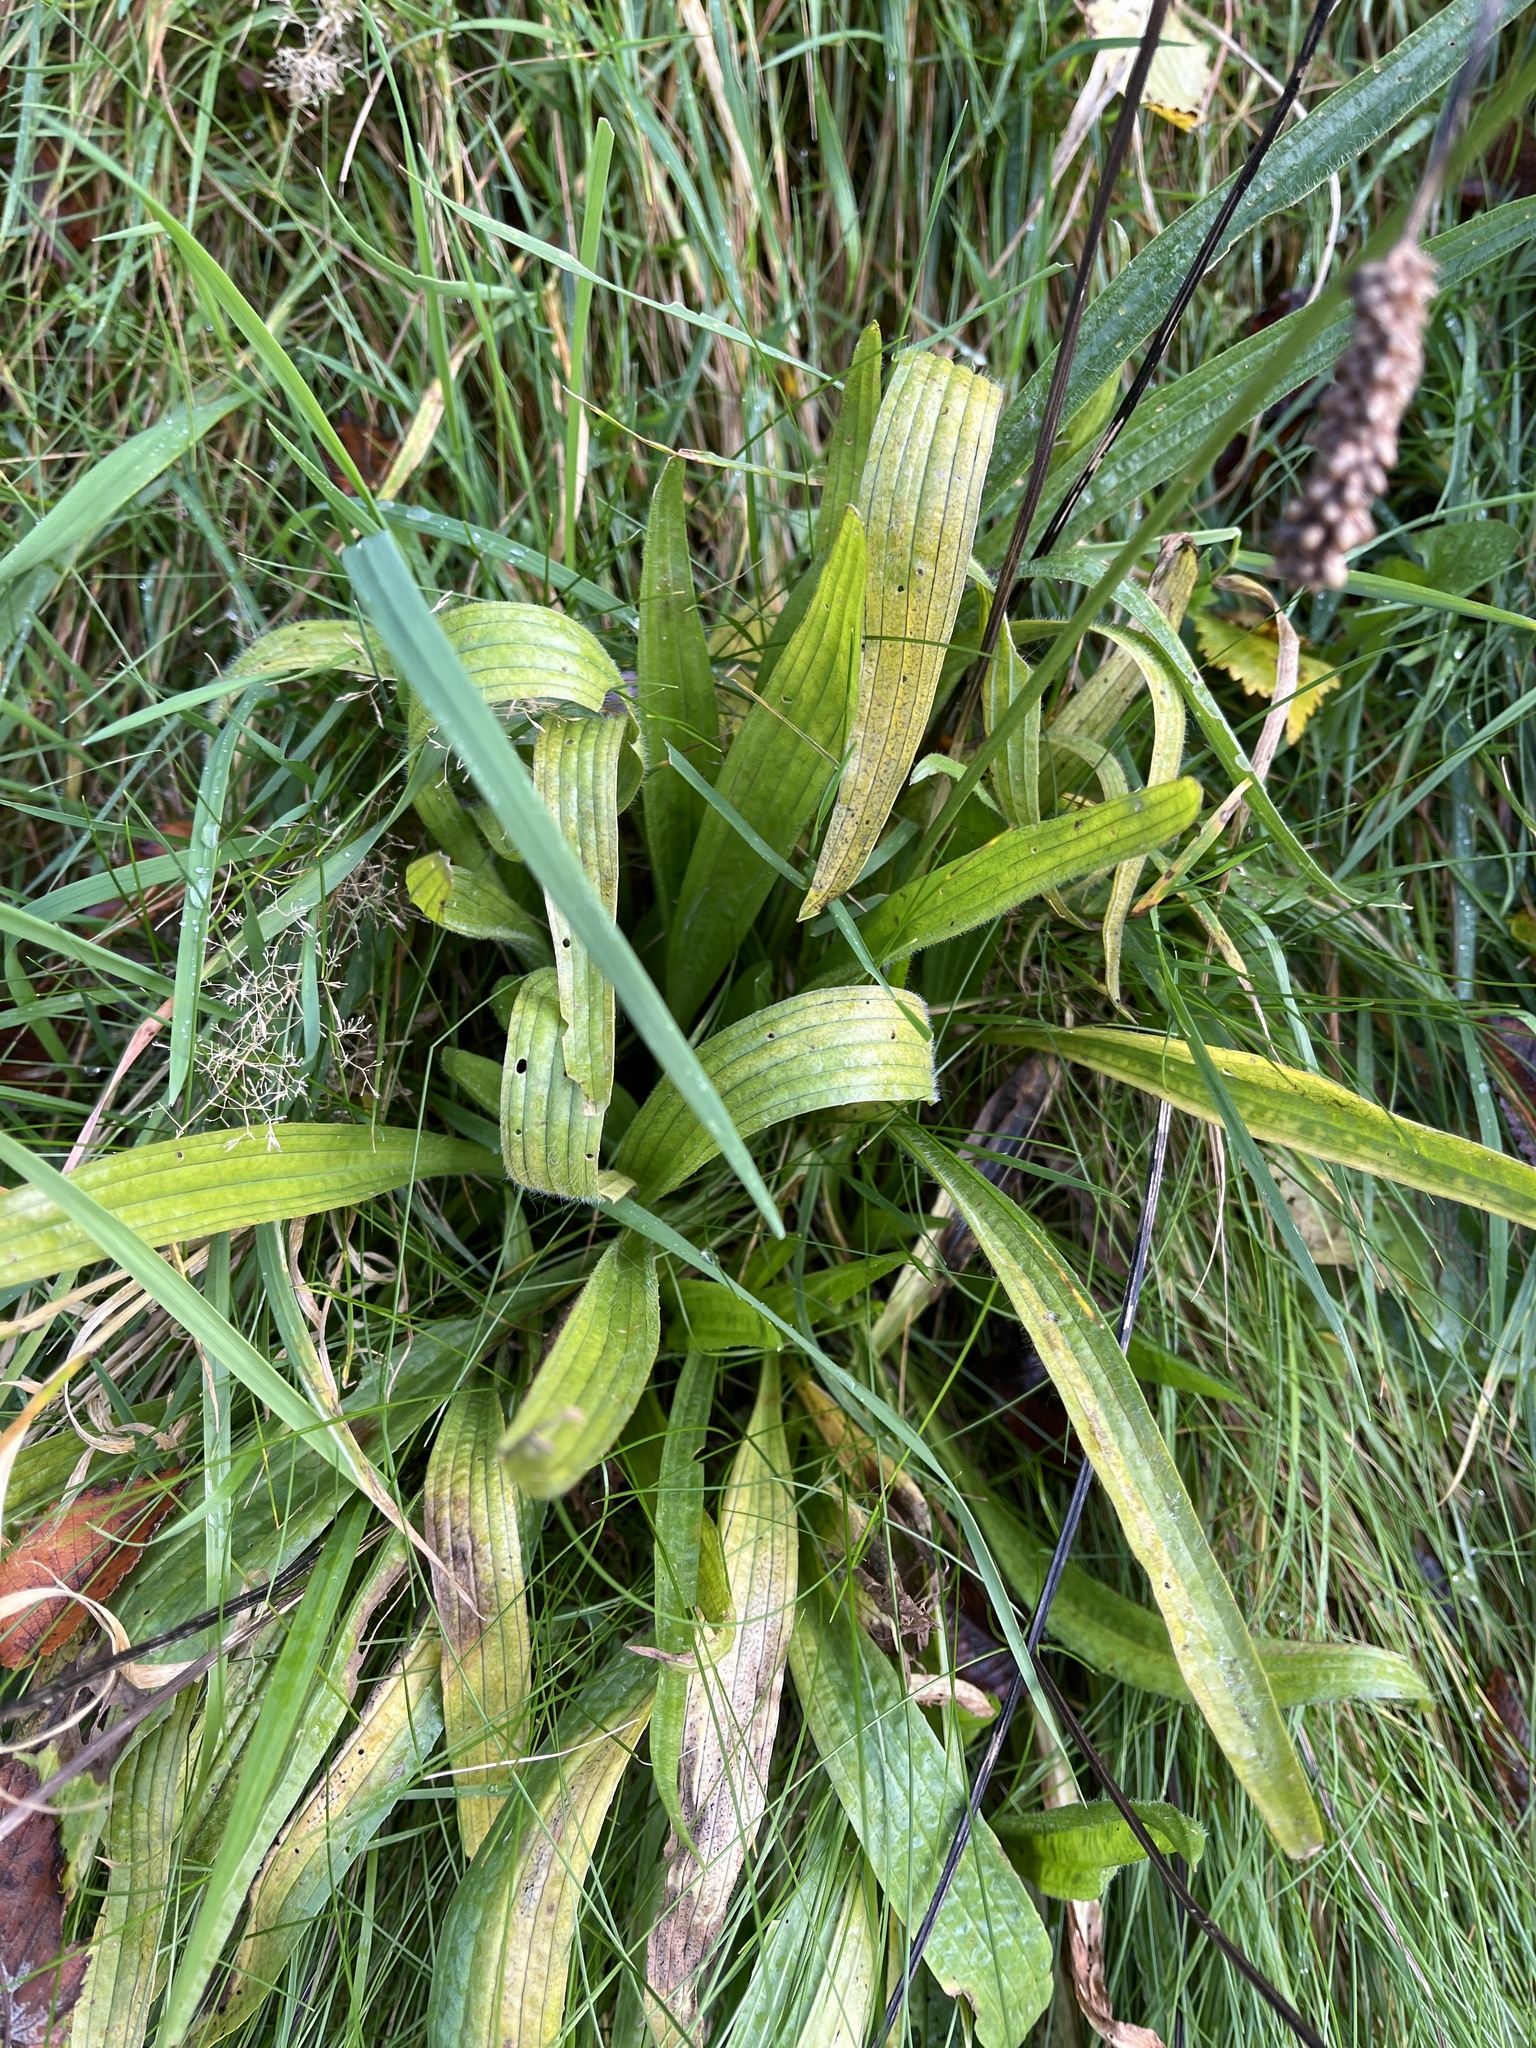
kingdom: Plantae
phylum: Tracheophyta
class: Magnoliopsida
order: Lamiales
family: Plantaginaceae
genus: Plantago
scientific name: Plantago lanceolata
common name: Ribwort plantain
